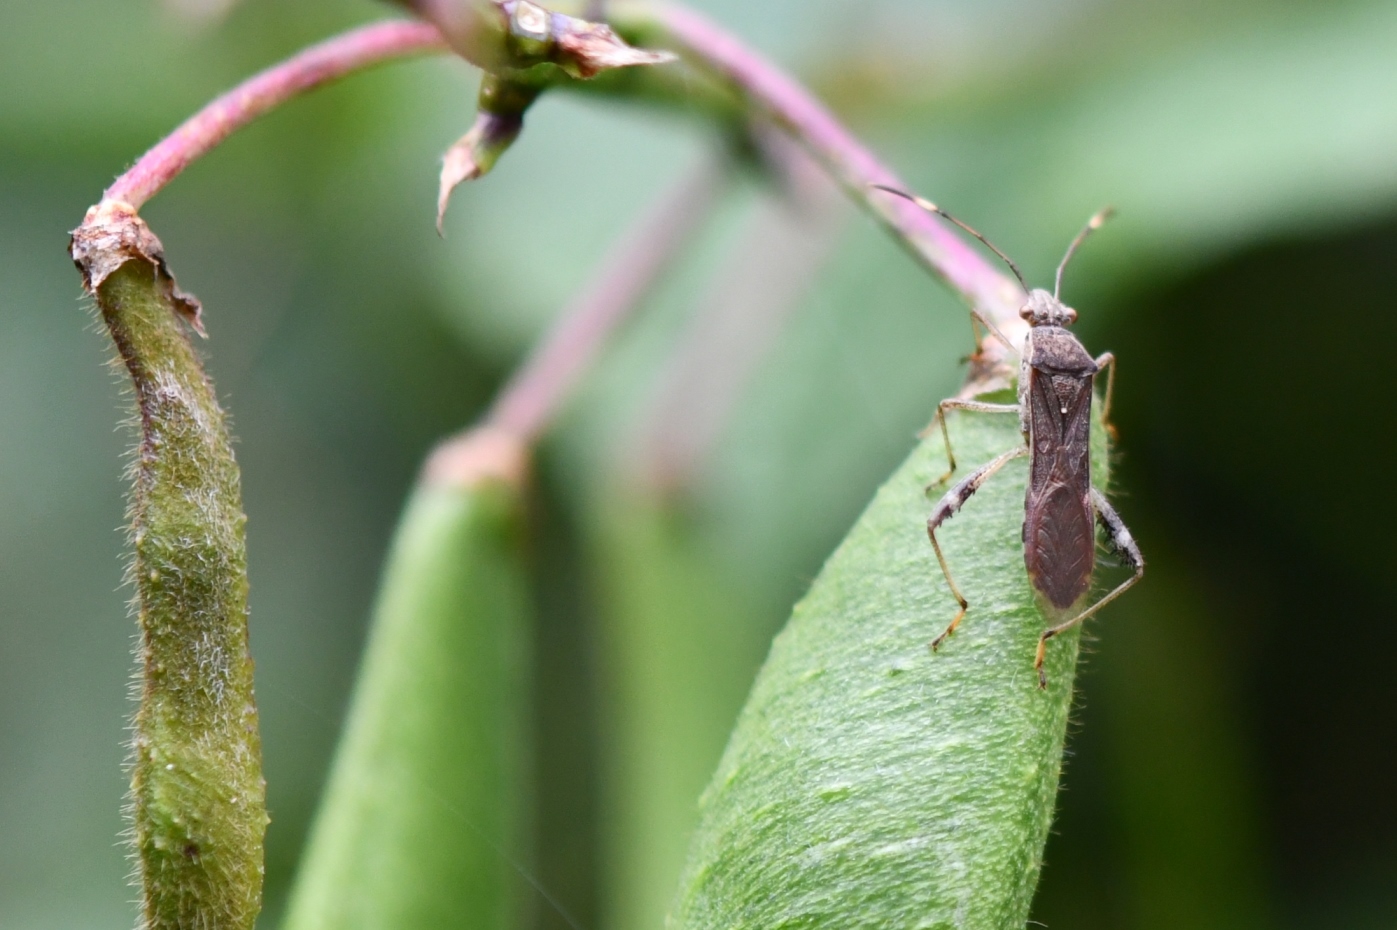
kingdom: Animalia
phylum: Arthropoda
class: Insecta
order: Hemiptera
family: Alydidae
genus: Burtinus
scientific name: Burtinus notatipennis
